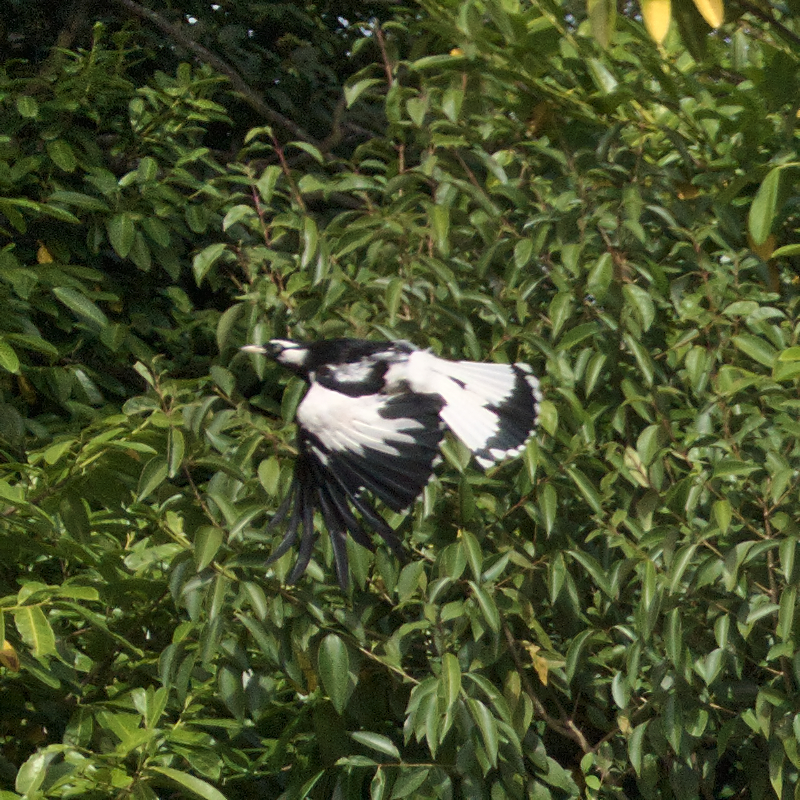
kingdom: Animalia
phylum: Chordata
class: Aves
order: Passeriformes
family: Monarchidae
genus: Grallina
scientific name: Grallina cyanoleuca
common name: Magpie-lark
